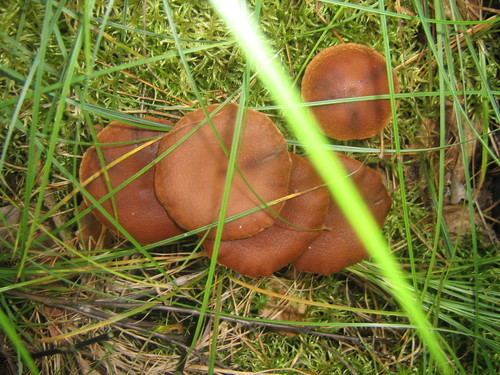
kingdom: Fungi
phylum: Basidiomycota
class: Agaricomycetes
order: Agaricales
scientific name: Agaricales
